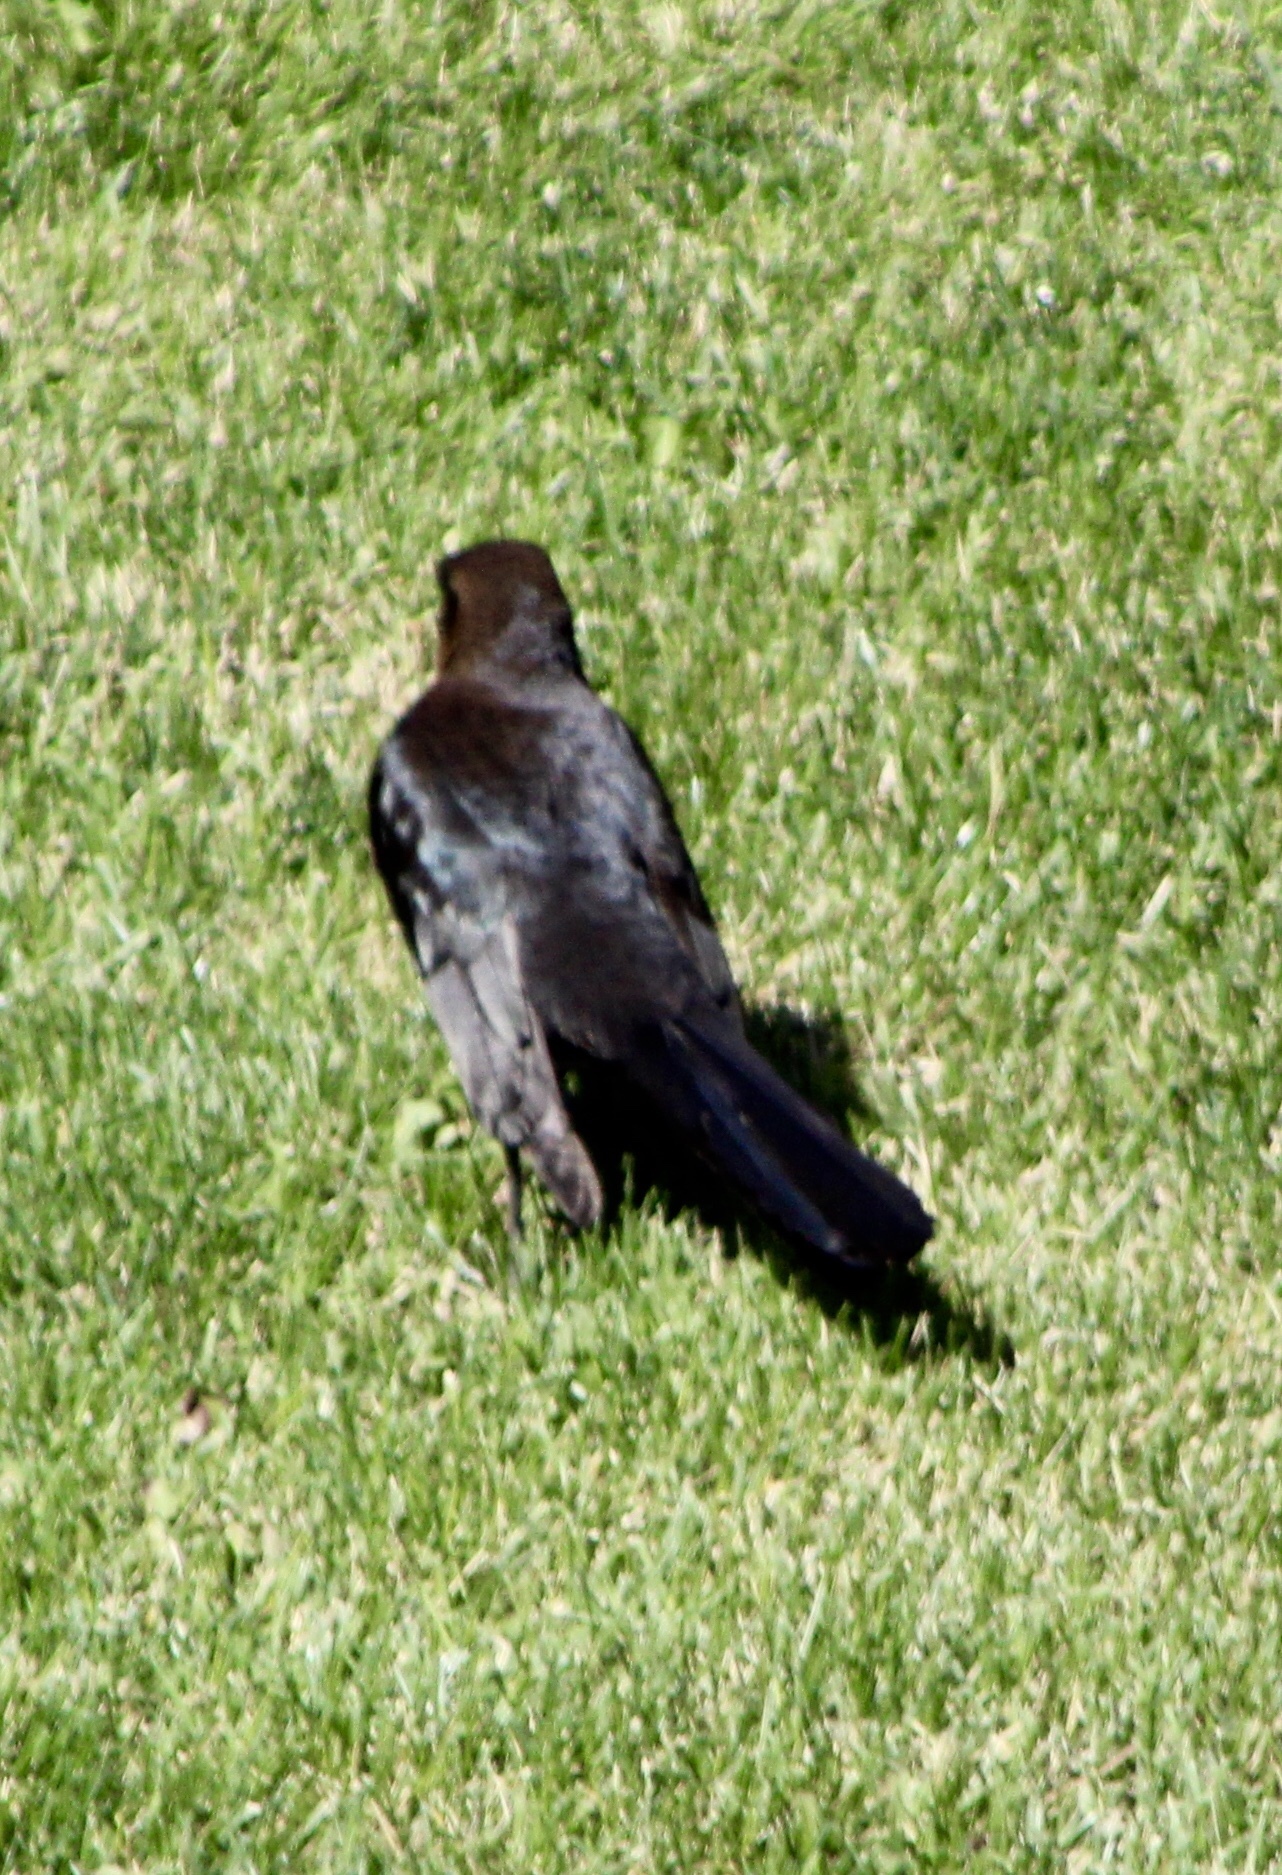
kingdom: Animalia
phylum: Chordata
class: Aves
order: Passeriformes
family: Icteridae
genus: Quiscalus
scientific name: Quiscalus mexicanus
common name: Great-tailed grackle
